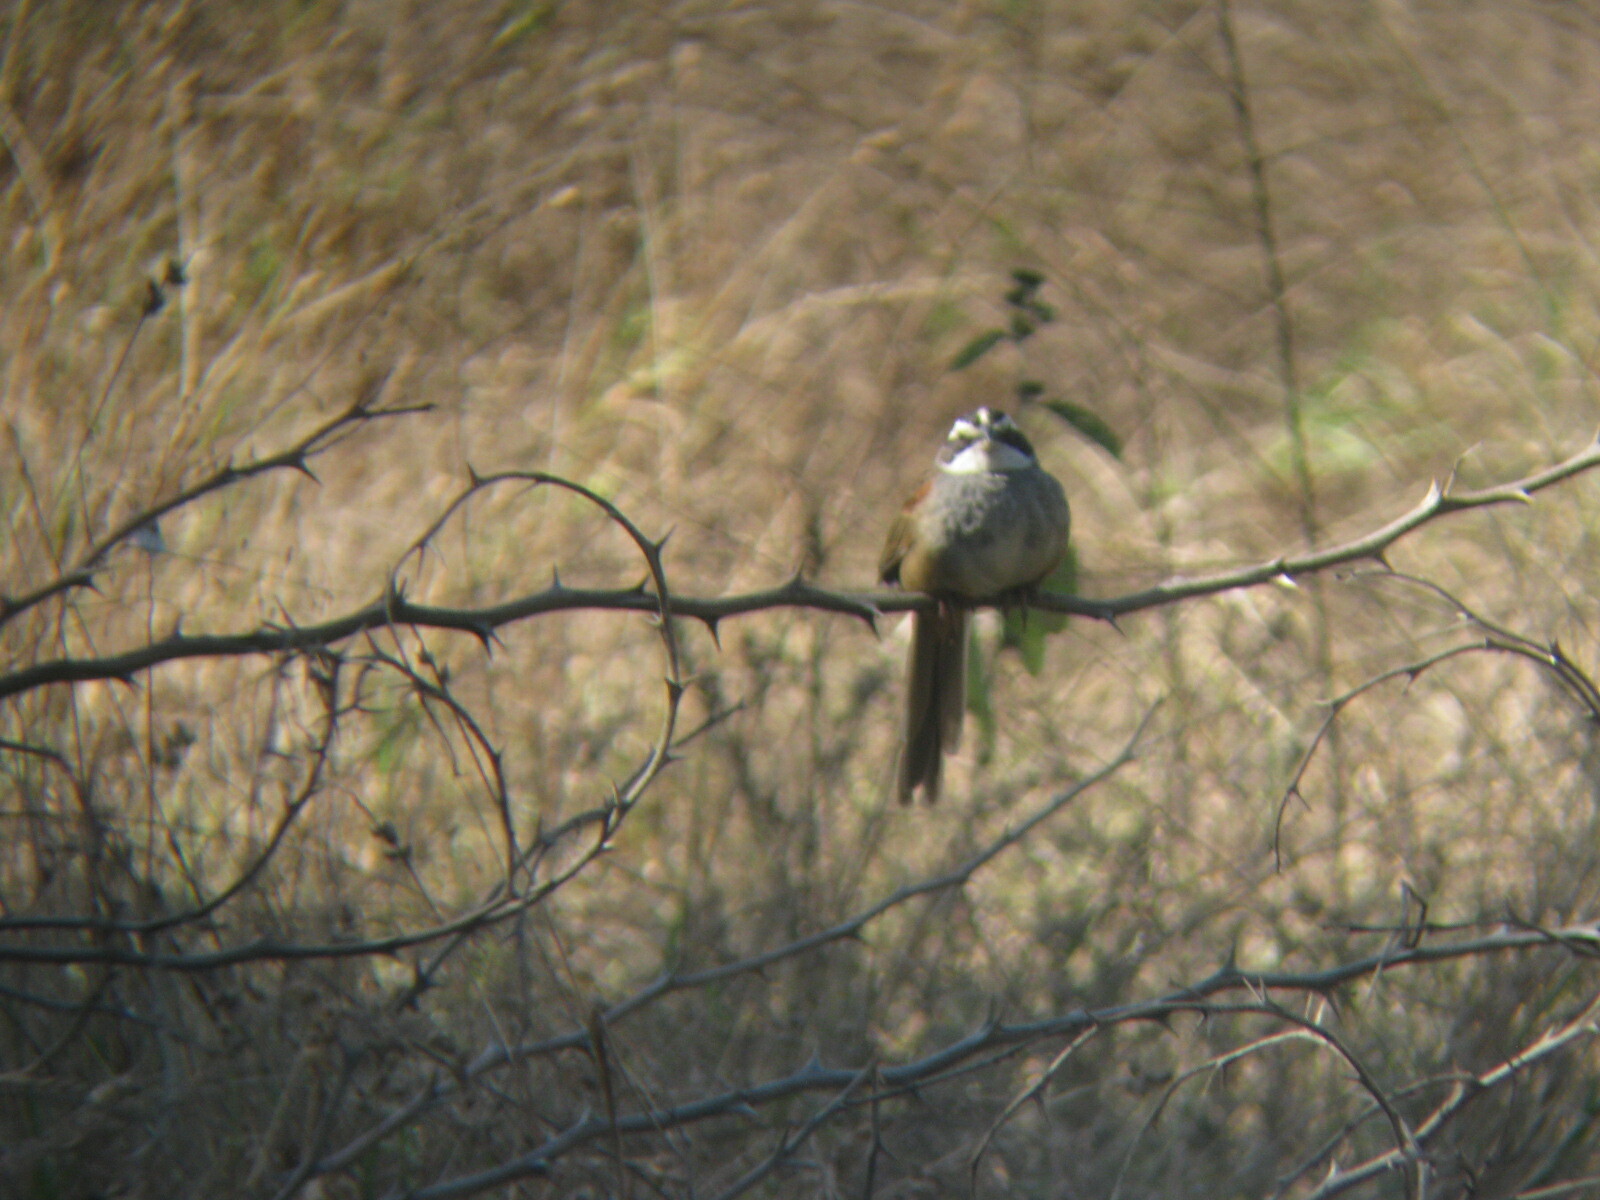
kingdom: Animalia
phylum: Chordata
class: Aves
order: Passeriformes
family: Passerellidae
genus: Peucaea
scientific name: Peucaea ruficauda
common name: Stripe-headed sparrow
